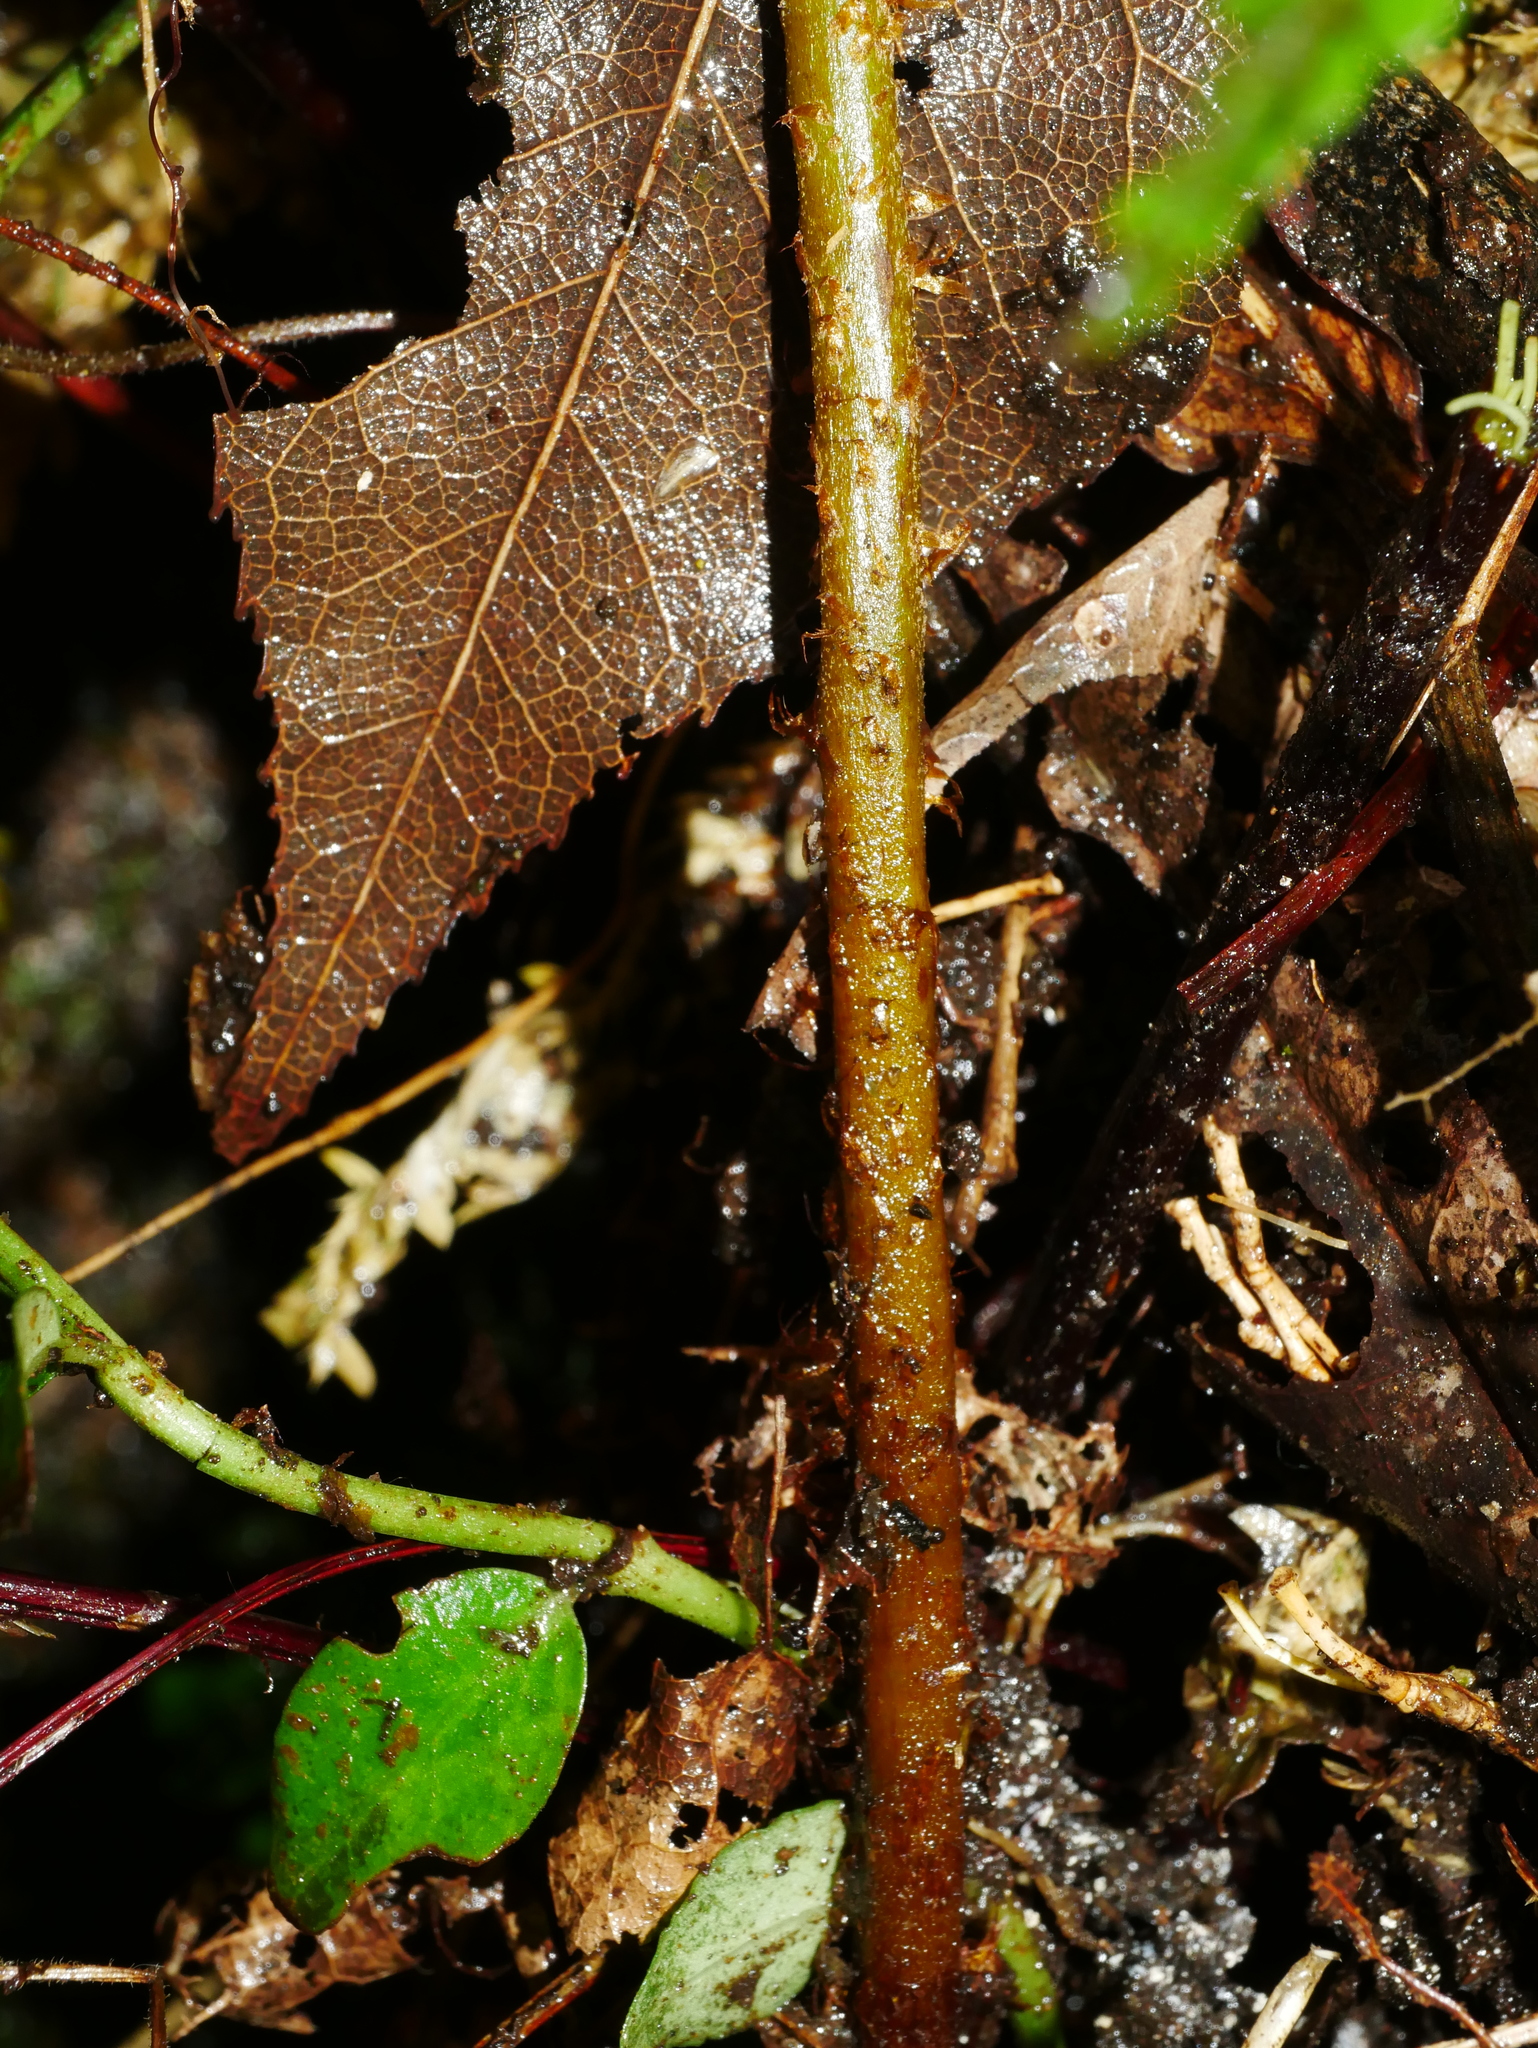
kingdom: Plantae
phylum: Tracheophyta
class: Polypodiopsida
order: Cyatheales
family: Cyatheaceae
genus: Gymnosphaera
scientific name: Gymnosphaera denticulata
